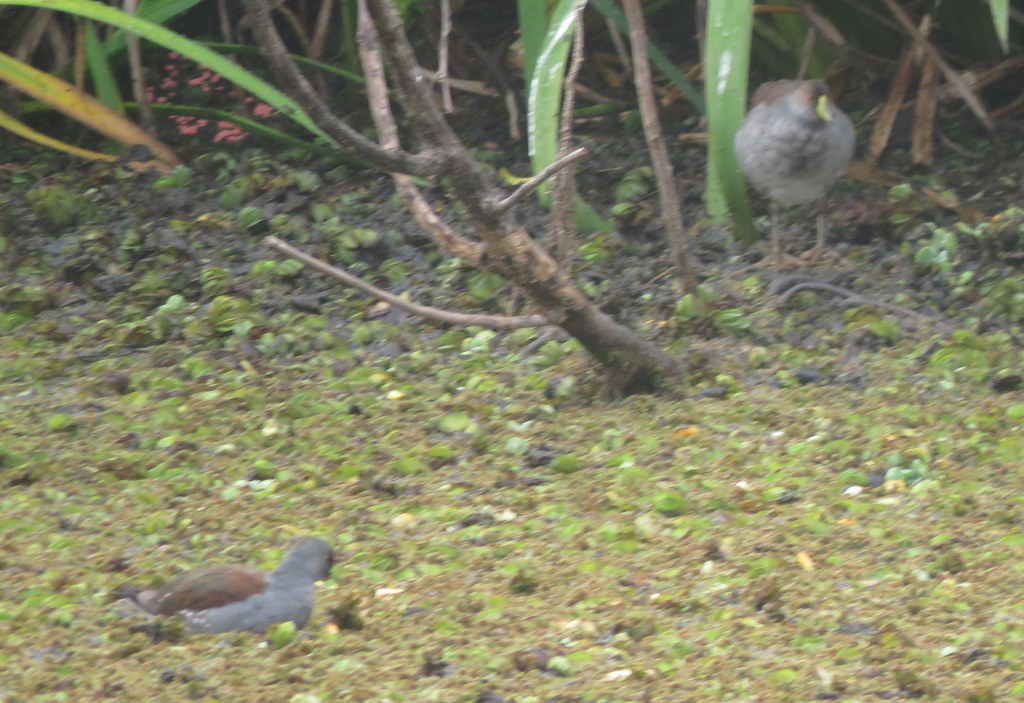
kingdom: Animalia
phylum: Chordata
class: Aves
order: Gruiformes
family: Rallidae
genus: Gallinula
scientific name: Gallinula melanops
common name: Spot-flanked gallinule
